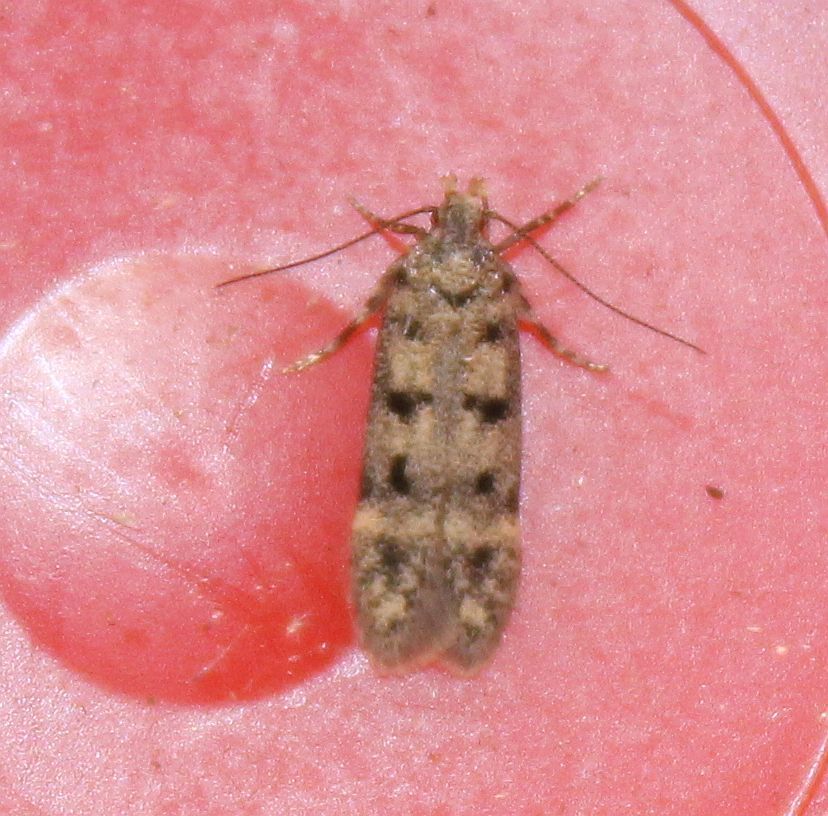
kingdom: Animalia
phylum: Arthropoda
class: Insecta
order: Lepidoptera
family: Gelechiidae
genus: Bryotropha
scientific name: Bryotropha domestica
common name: House groundling
